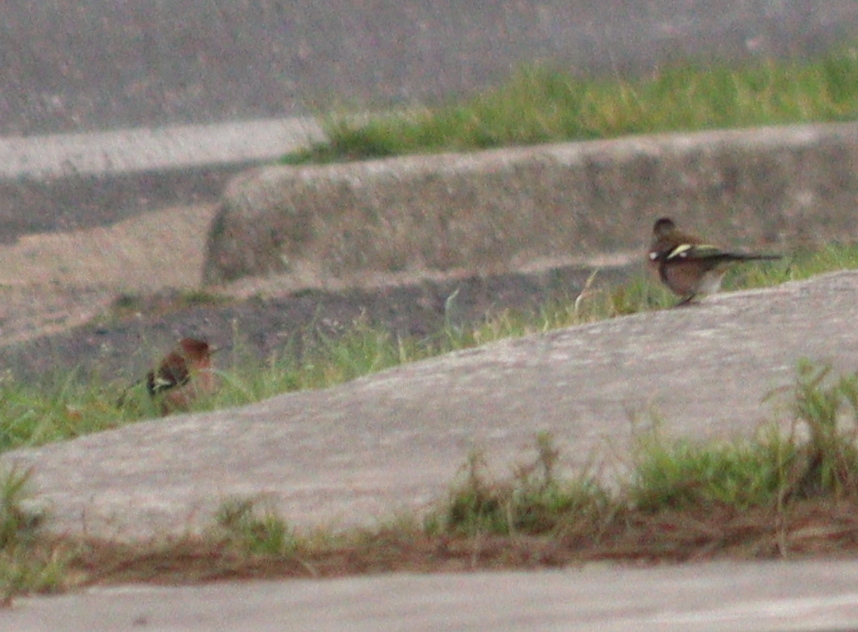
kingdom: Animalia
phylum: Chordata
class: Aves
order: Passeriformes
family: Fringillidae
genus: Fringilla
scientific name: Fringilla coelebs
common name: Common chaffinch
